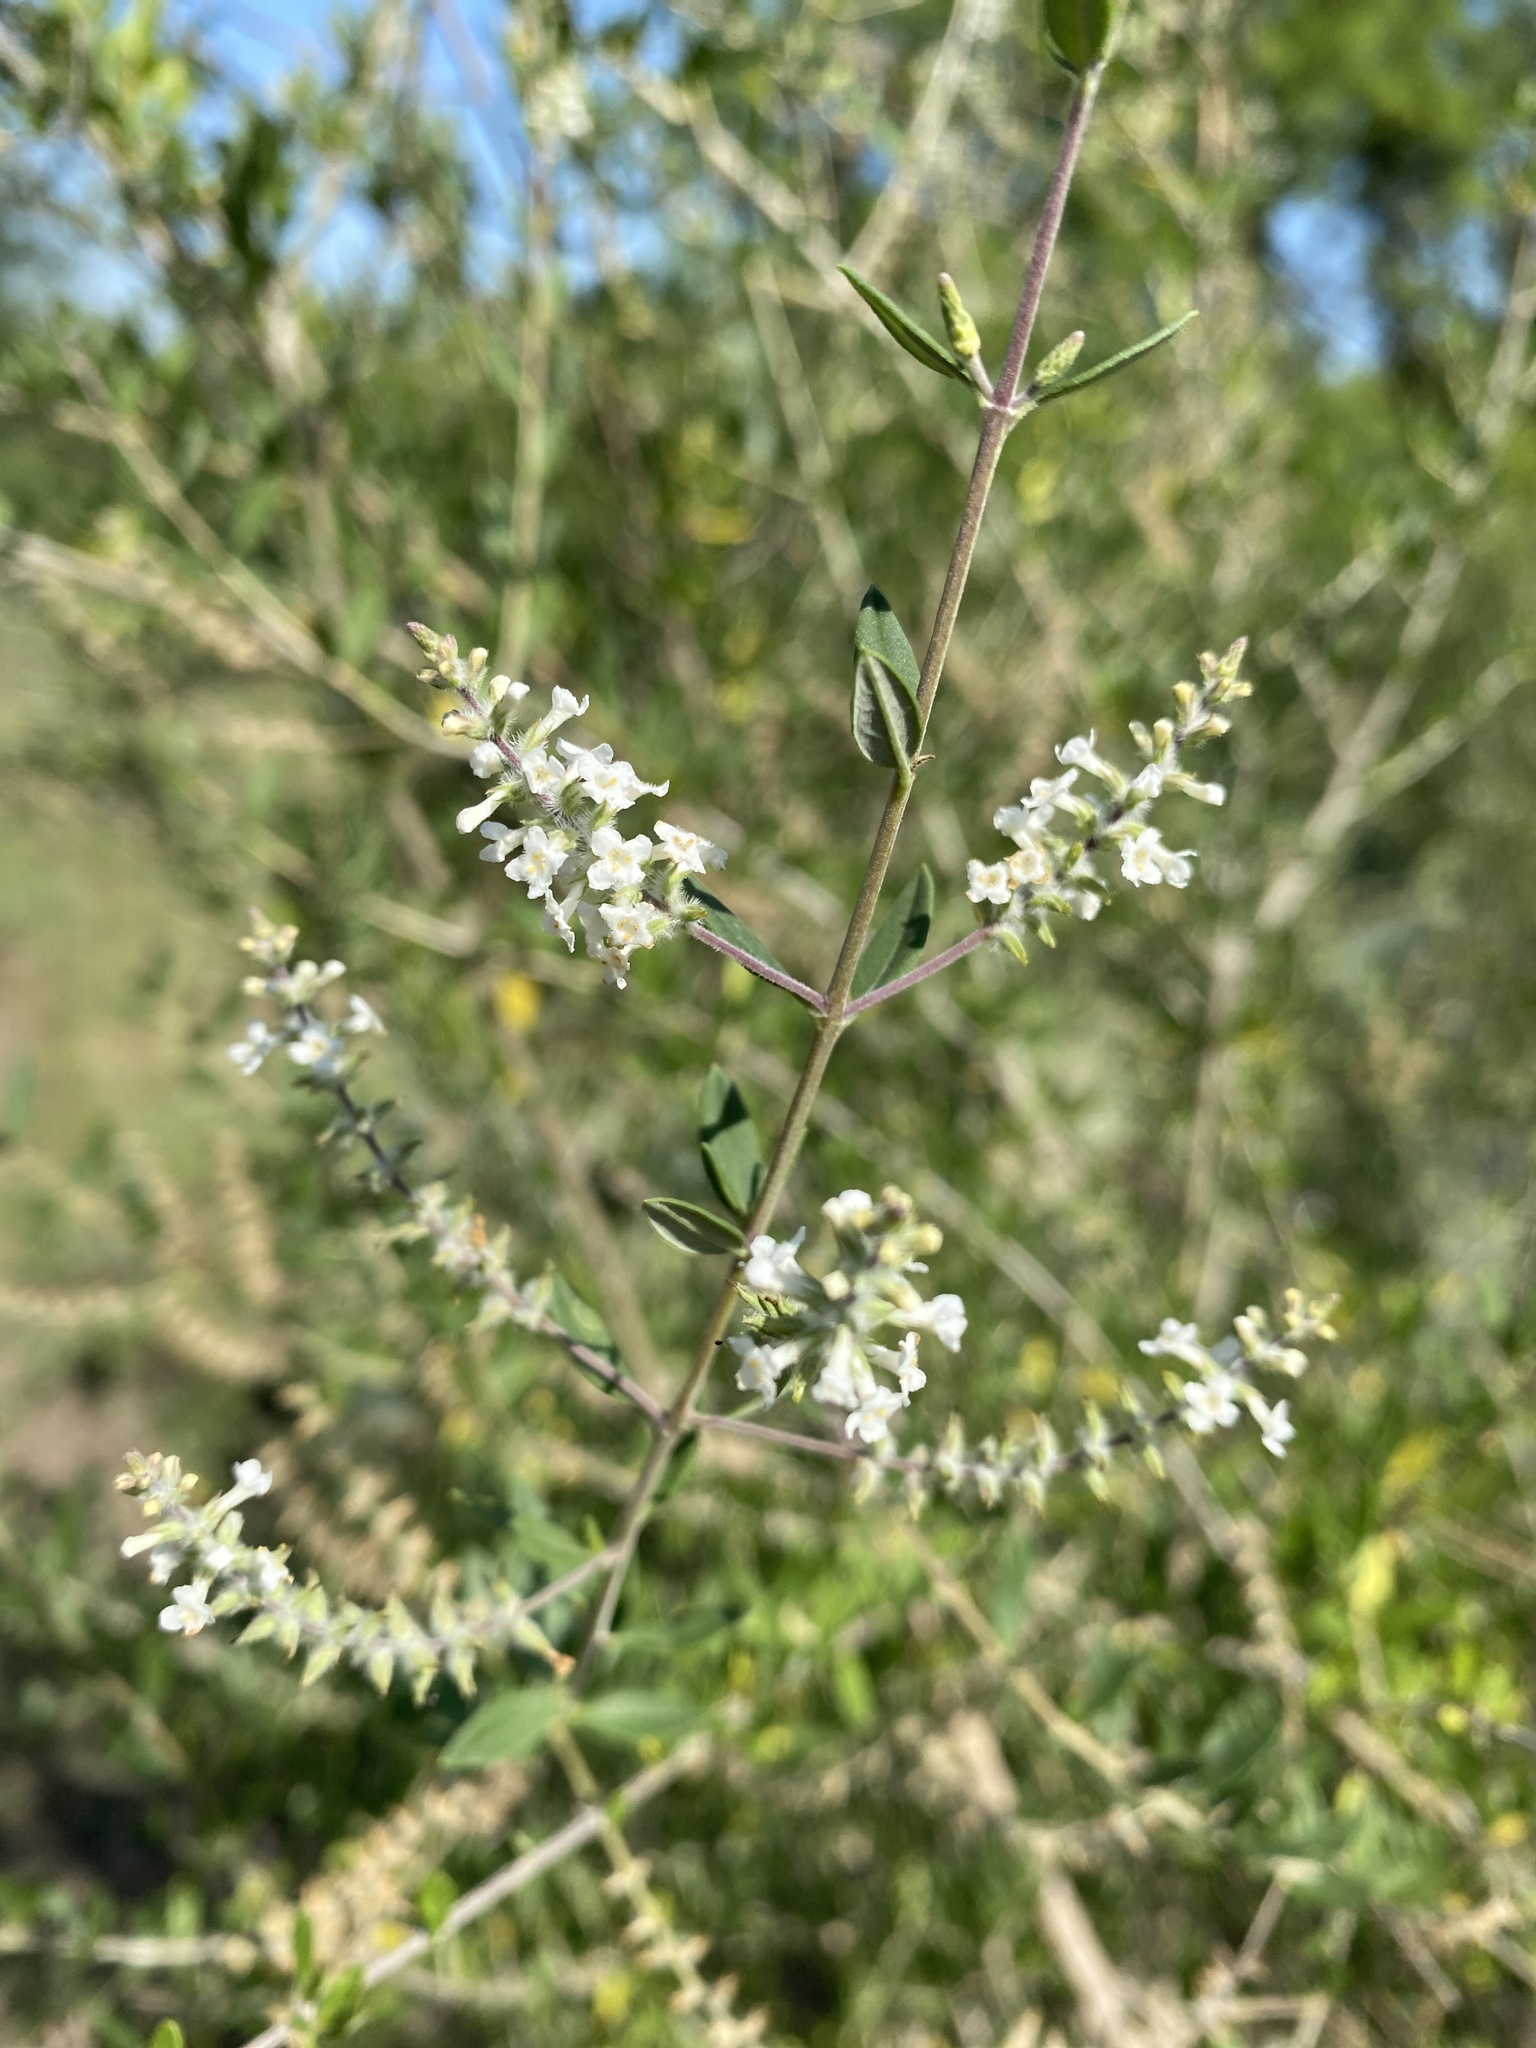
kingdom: Plantae
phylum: Tracheophyta
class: Magnoliopsida
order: Lamiales
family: Verbenaceae
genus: Aloysia
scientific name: Aloysia gratissima
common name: Common bee-brush
